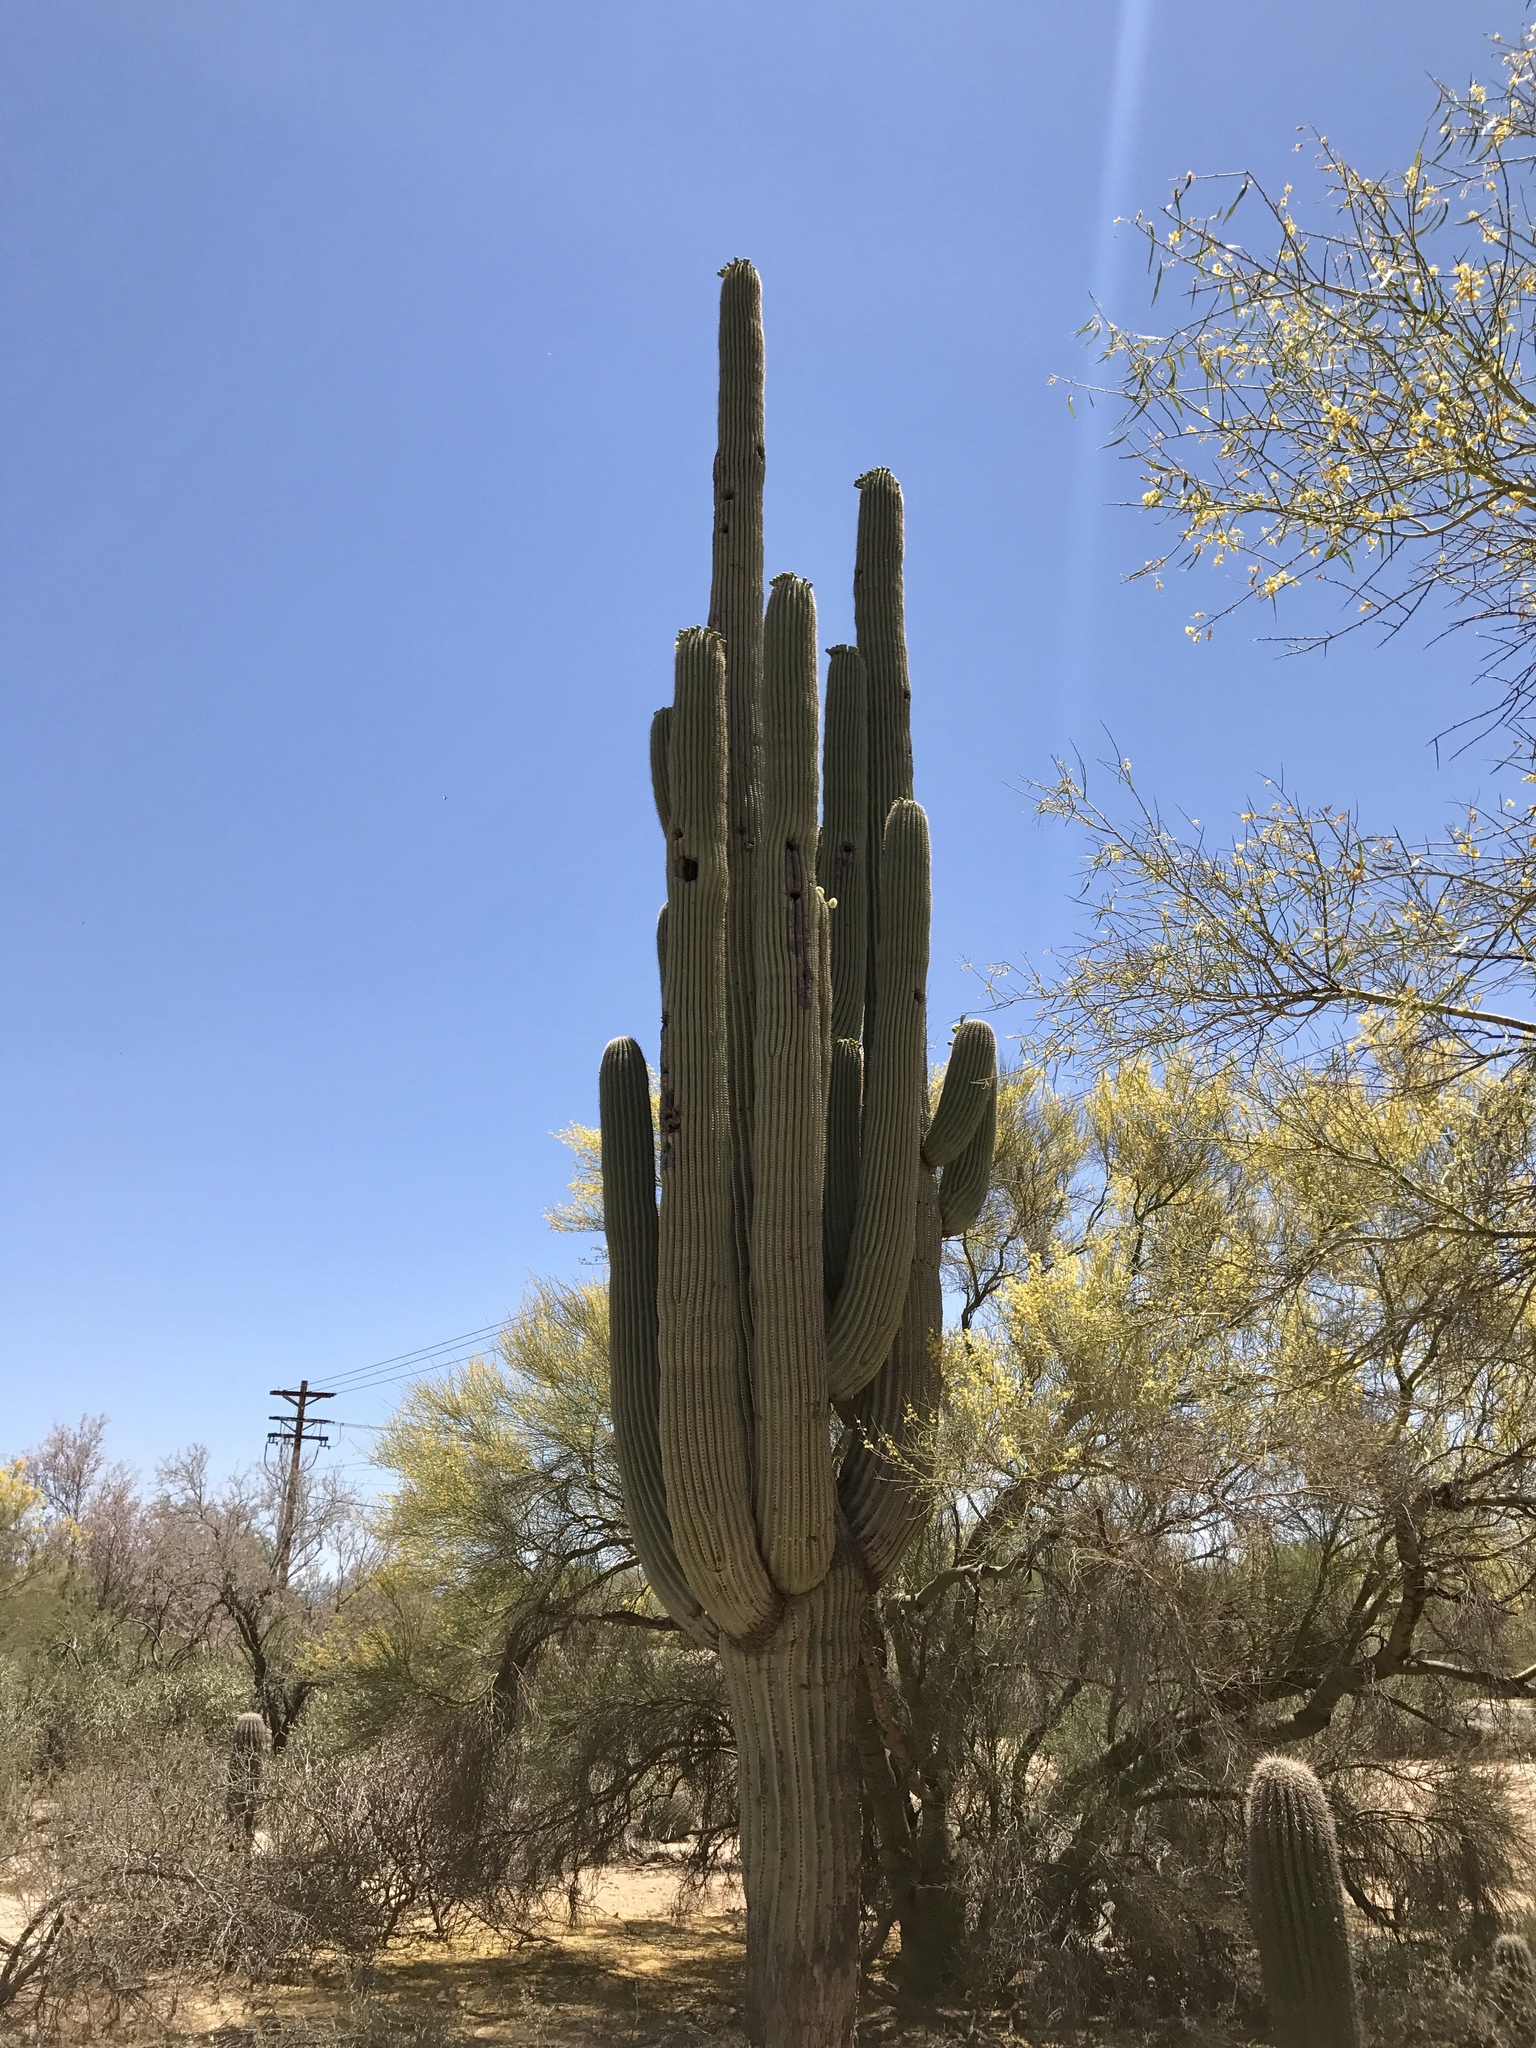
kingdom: Plantae
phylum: Tracheophyta
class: Magnoliopsida
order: Caryophyllales
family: Cactaceae
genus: Carnegiea
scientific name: Carnegiea gigantea
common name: Saguaro
